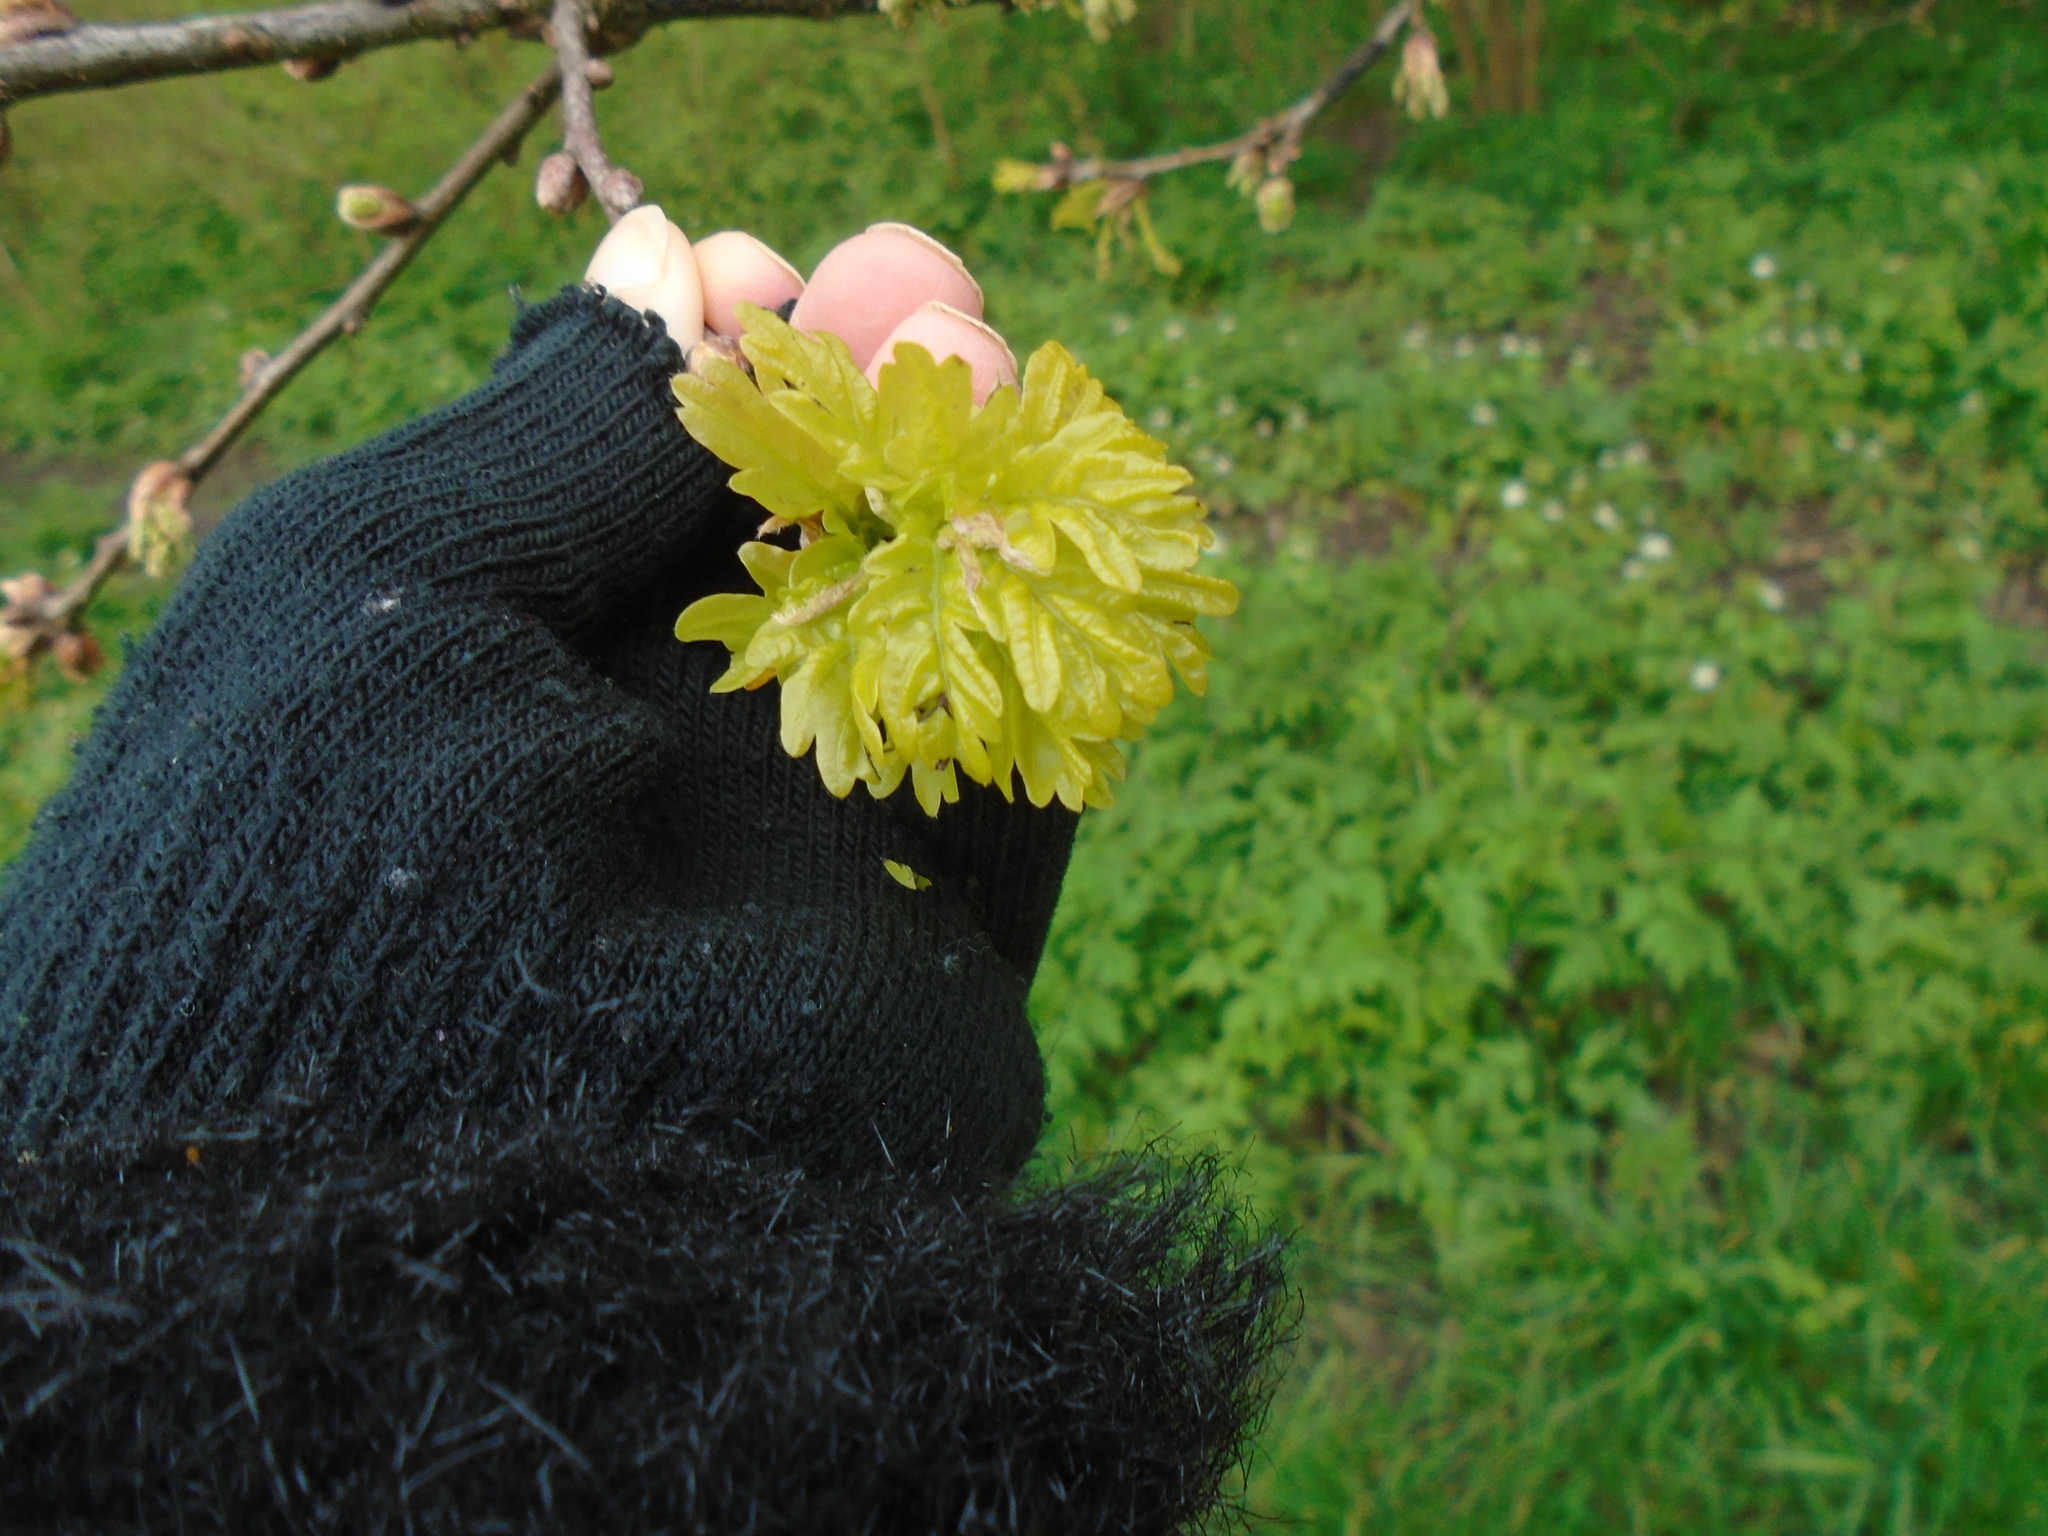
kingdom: Plantae
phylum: Tracheophyta
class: Magnoliopsida
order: Fagales
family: Fagaceae
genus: Quercus
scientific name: Quercus robur
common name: Pedunculate oak
